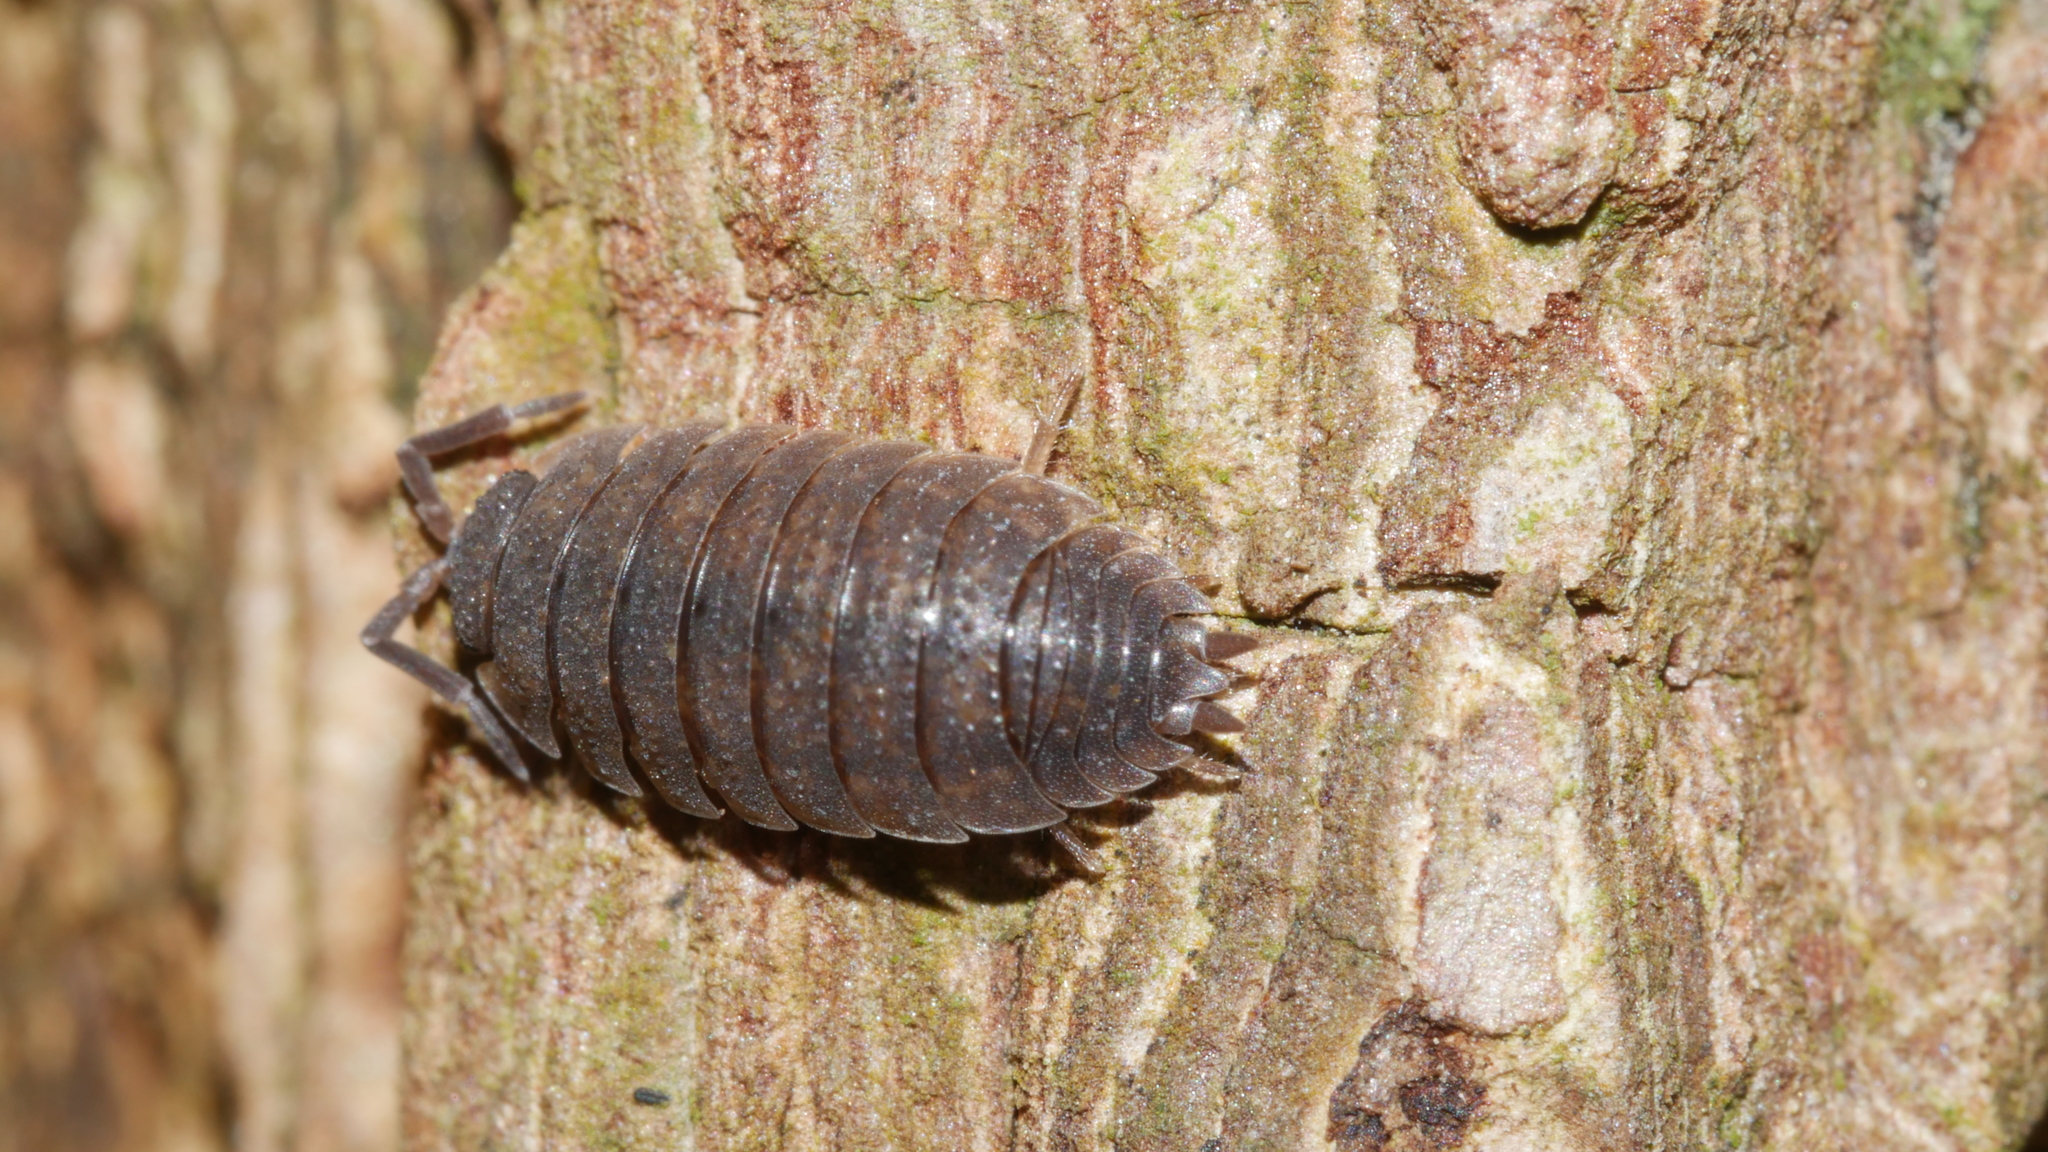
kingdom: Animalia
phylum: Arthropoda
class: Malacostraca
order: Isopoda
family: Porcellionidae
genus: Porcellio
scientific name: Porcellio scaber
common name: Common rough woodlouse
